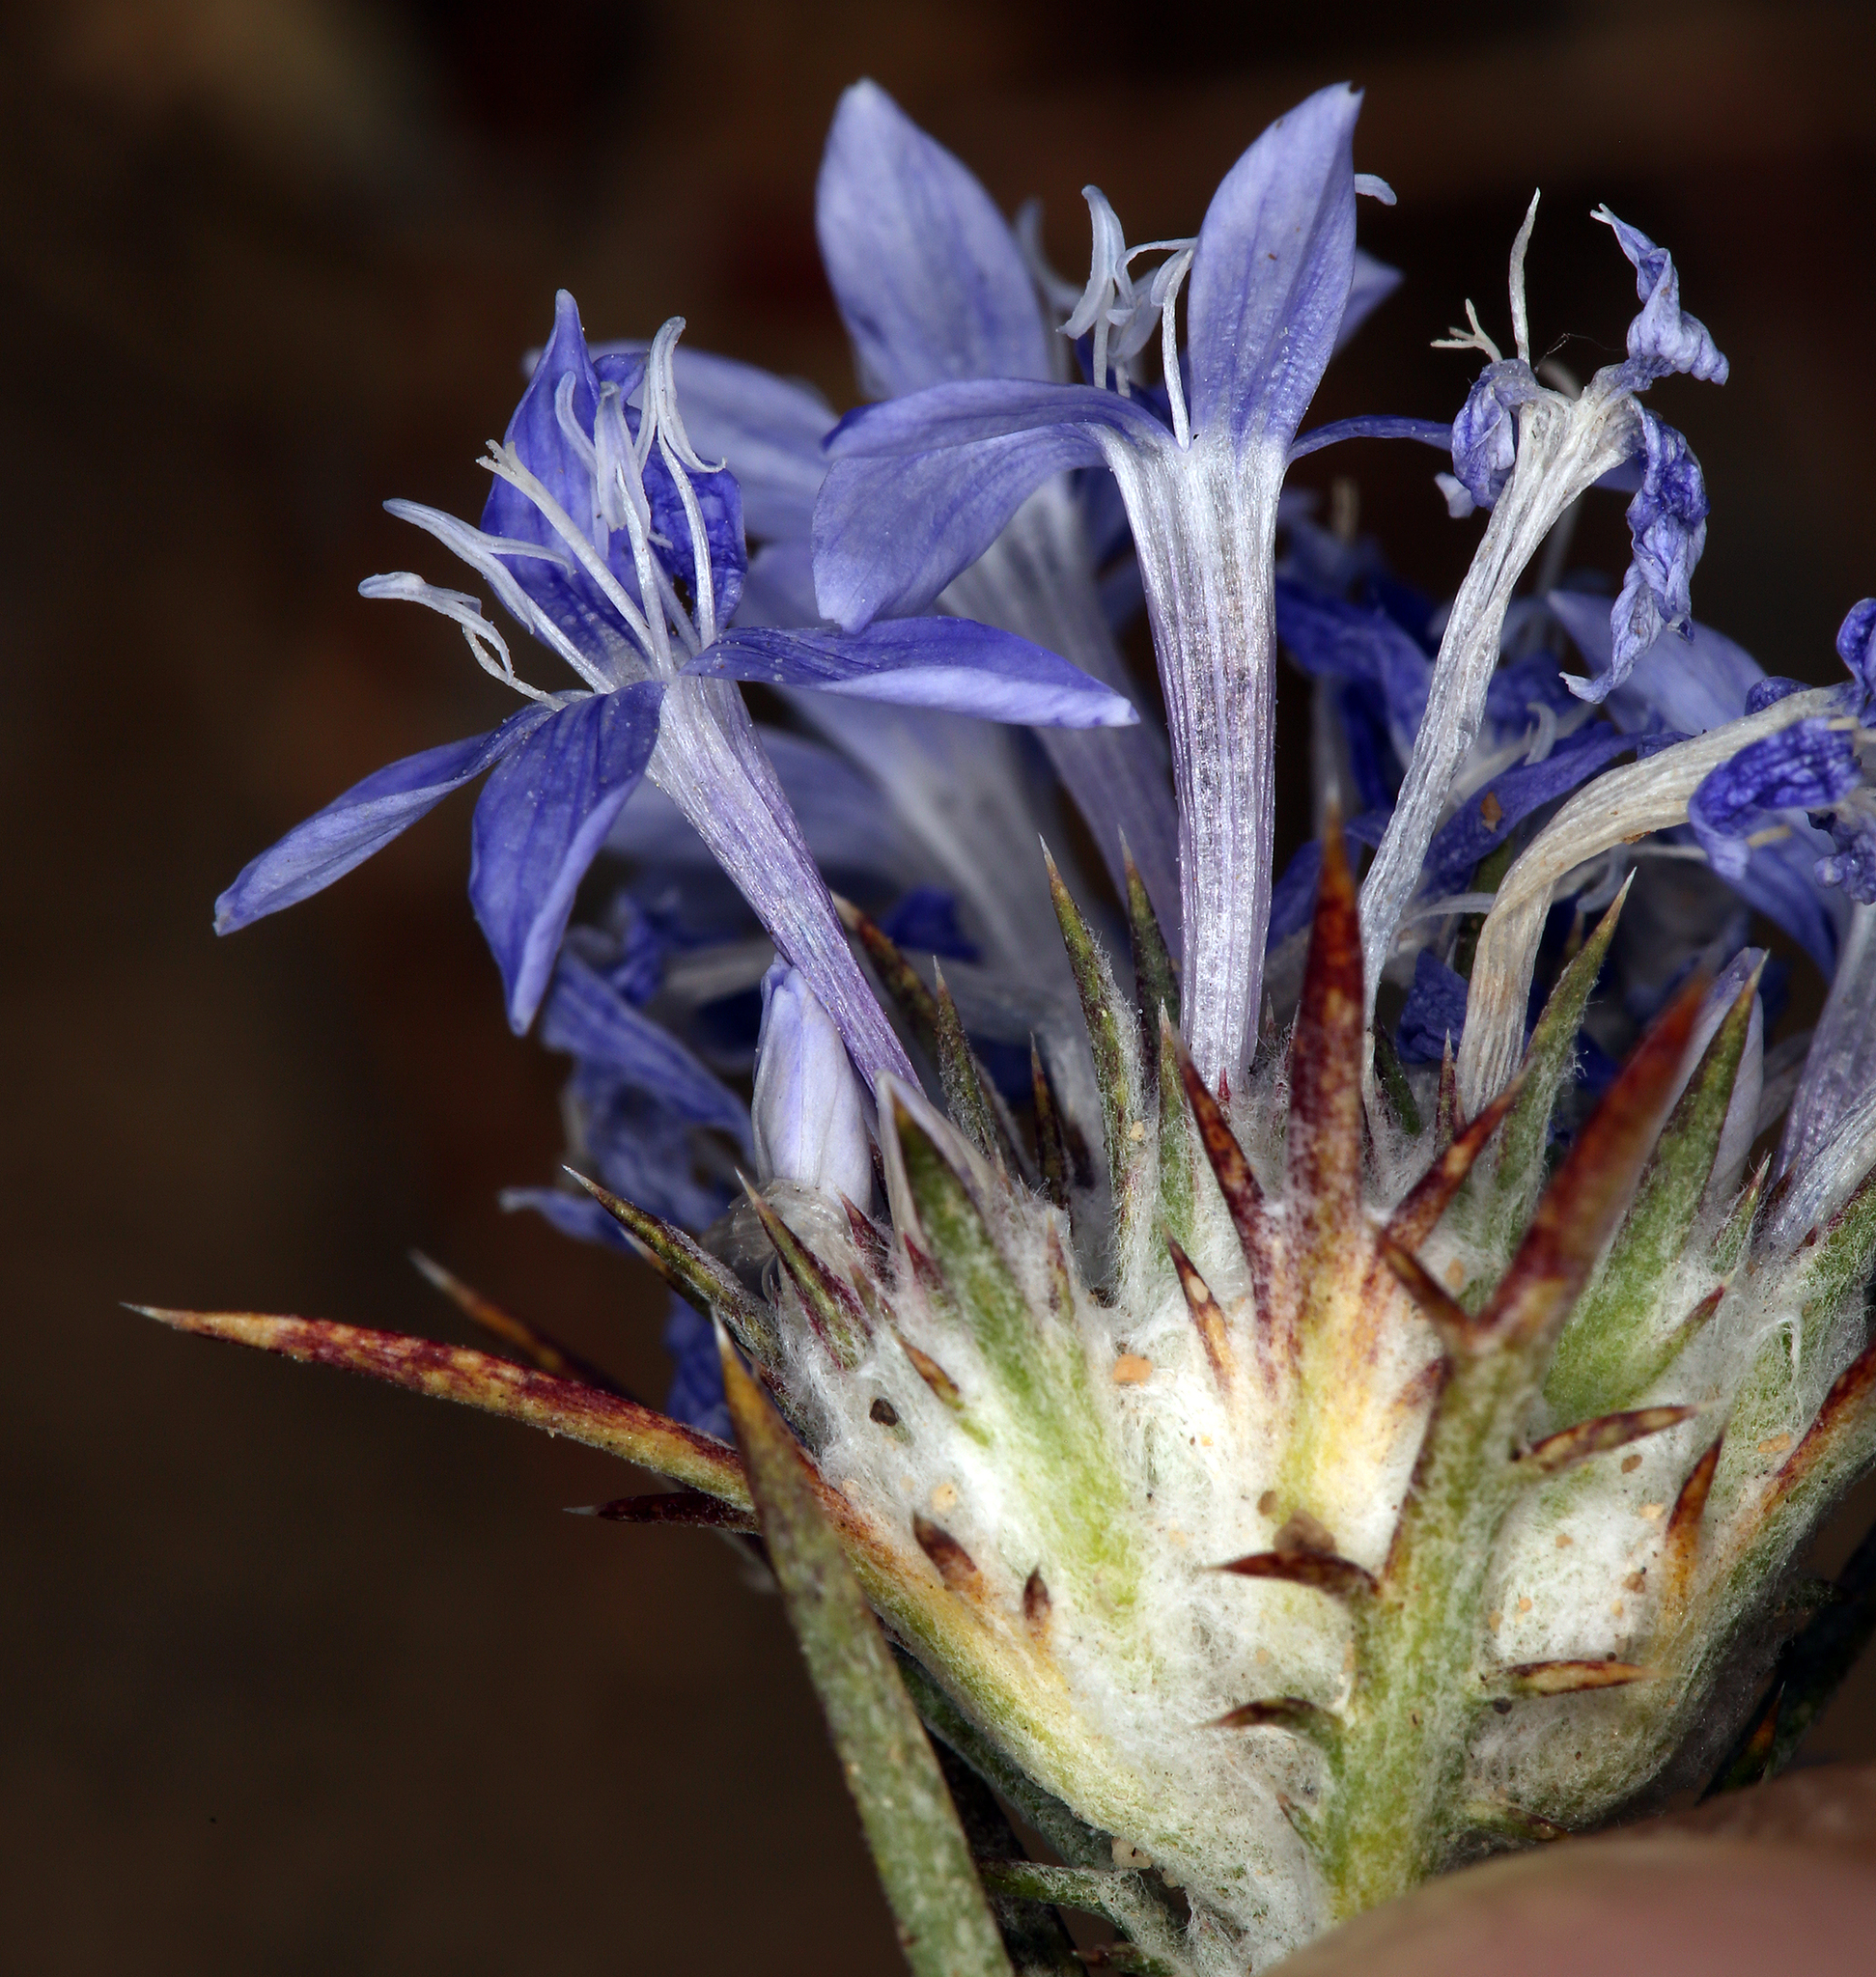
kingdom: Plantae
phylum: Tracheophyta
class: Magnoliopsida
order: Ericales
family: Polemoniaceae
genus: Eriastrum
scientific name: Eriastrum densifolium
